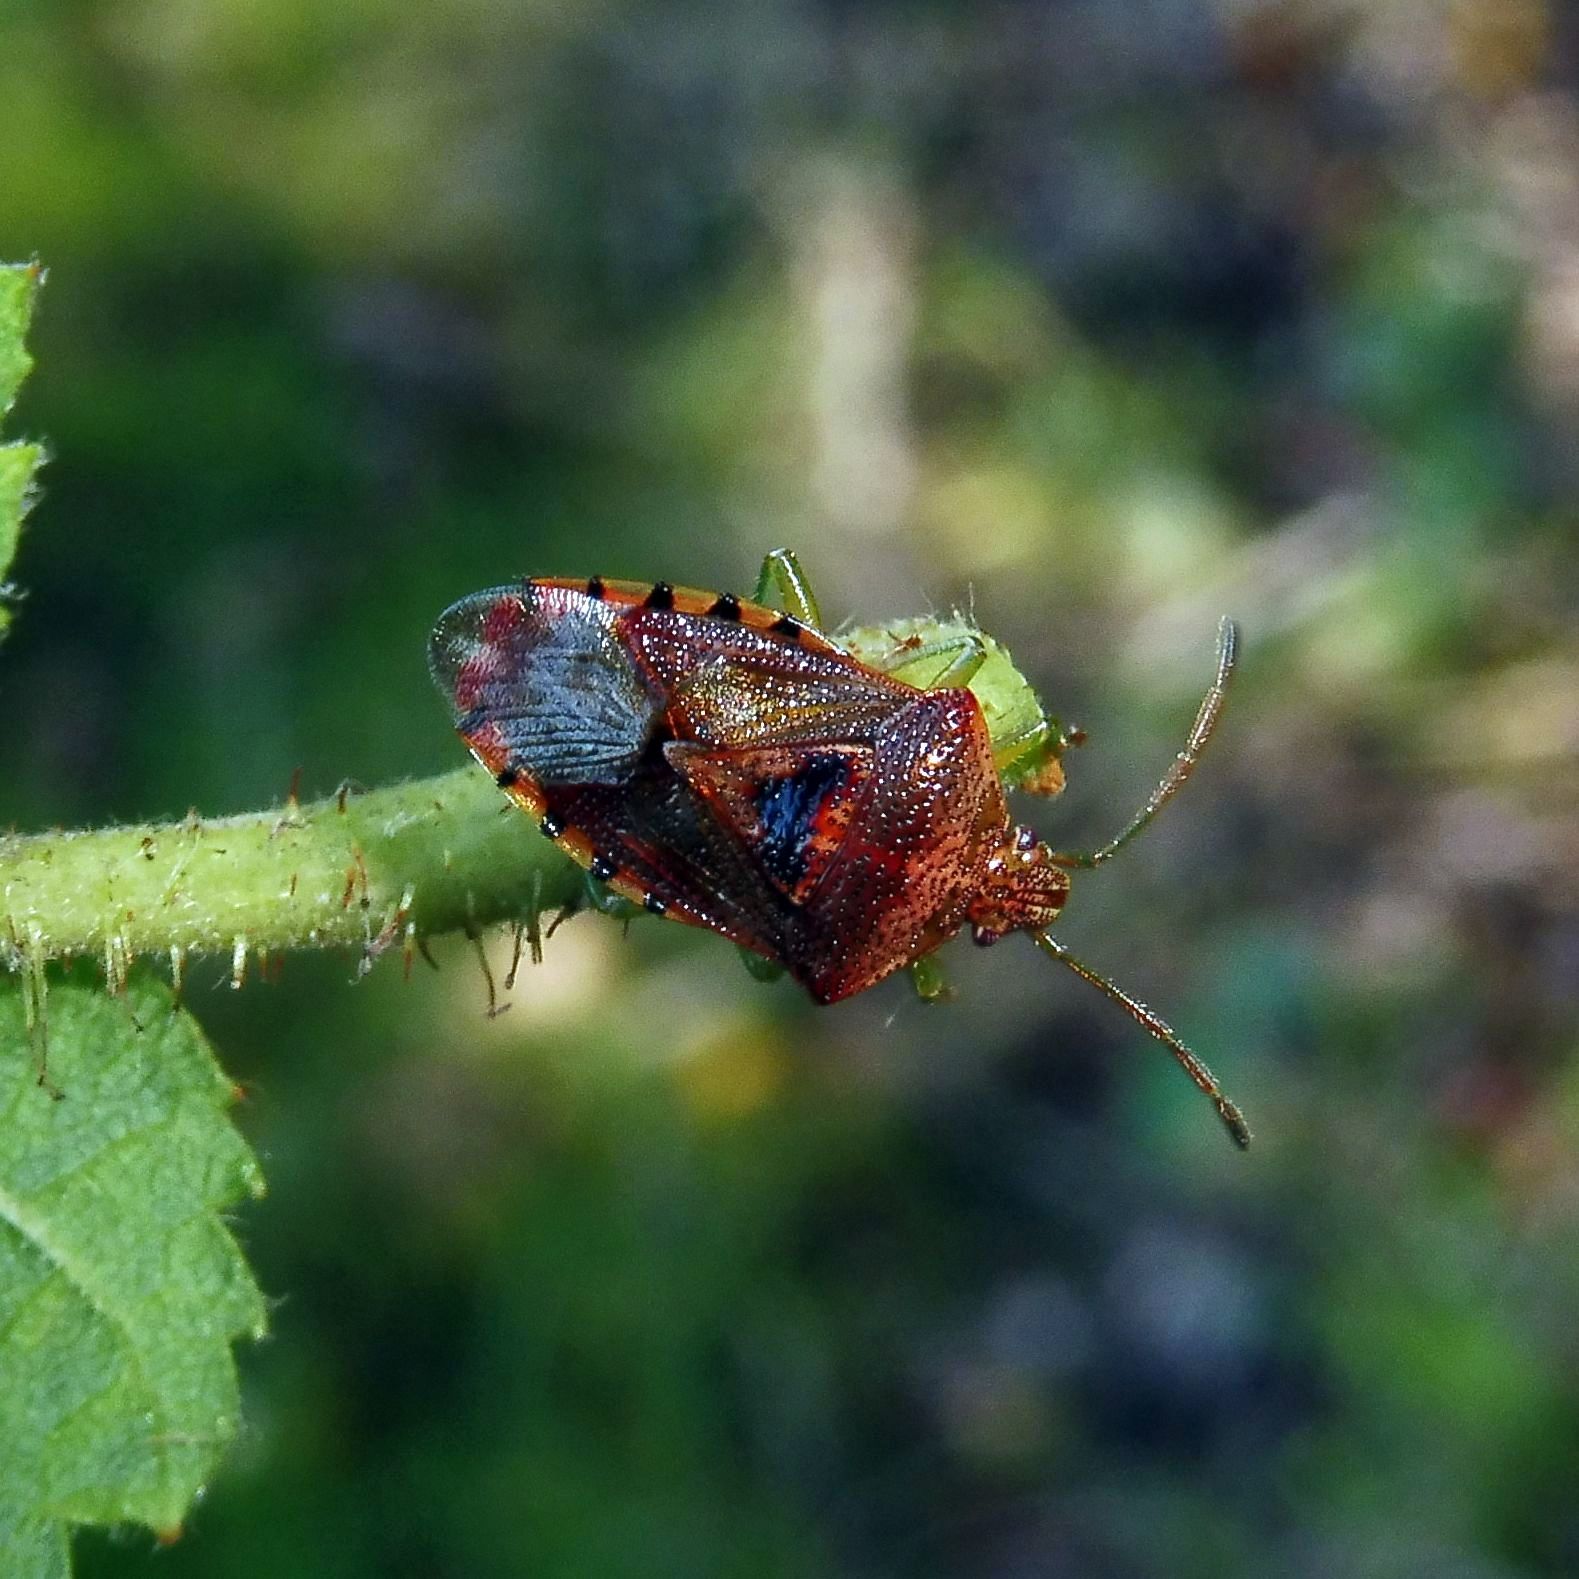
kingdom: Animalia
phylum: Arthropoda
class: Insecta
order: Hemiptera
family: Acanthosomatidae
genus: Elasmucha
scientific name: Elasmucha grisea
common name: Parent bug
